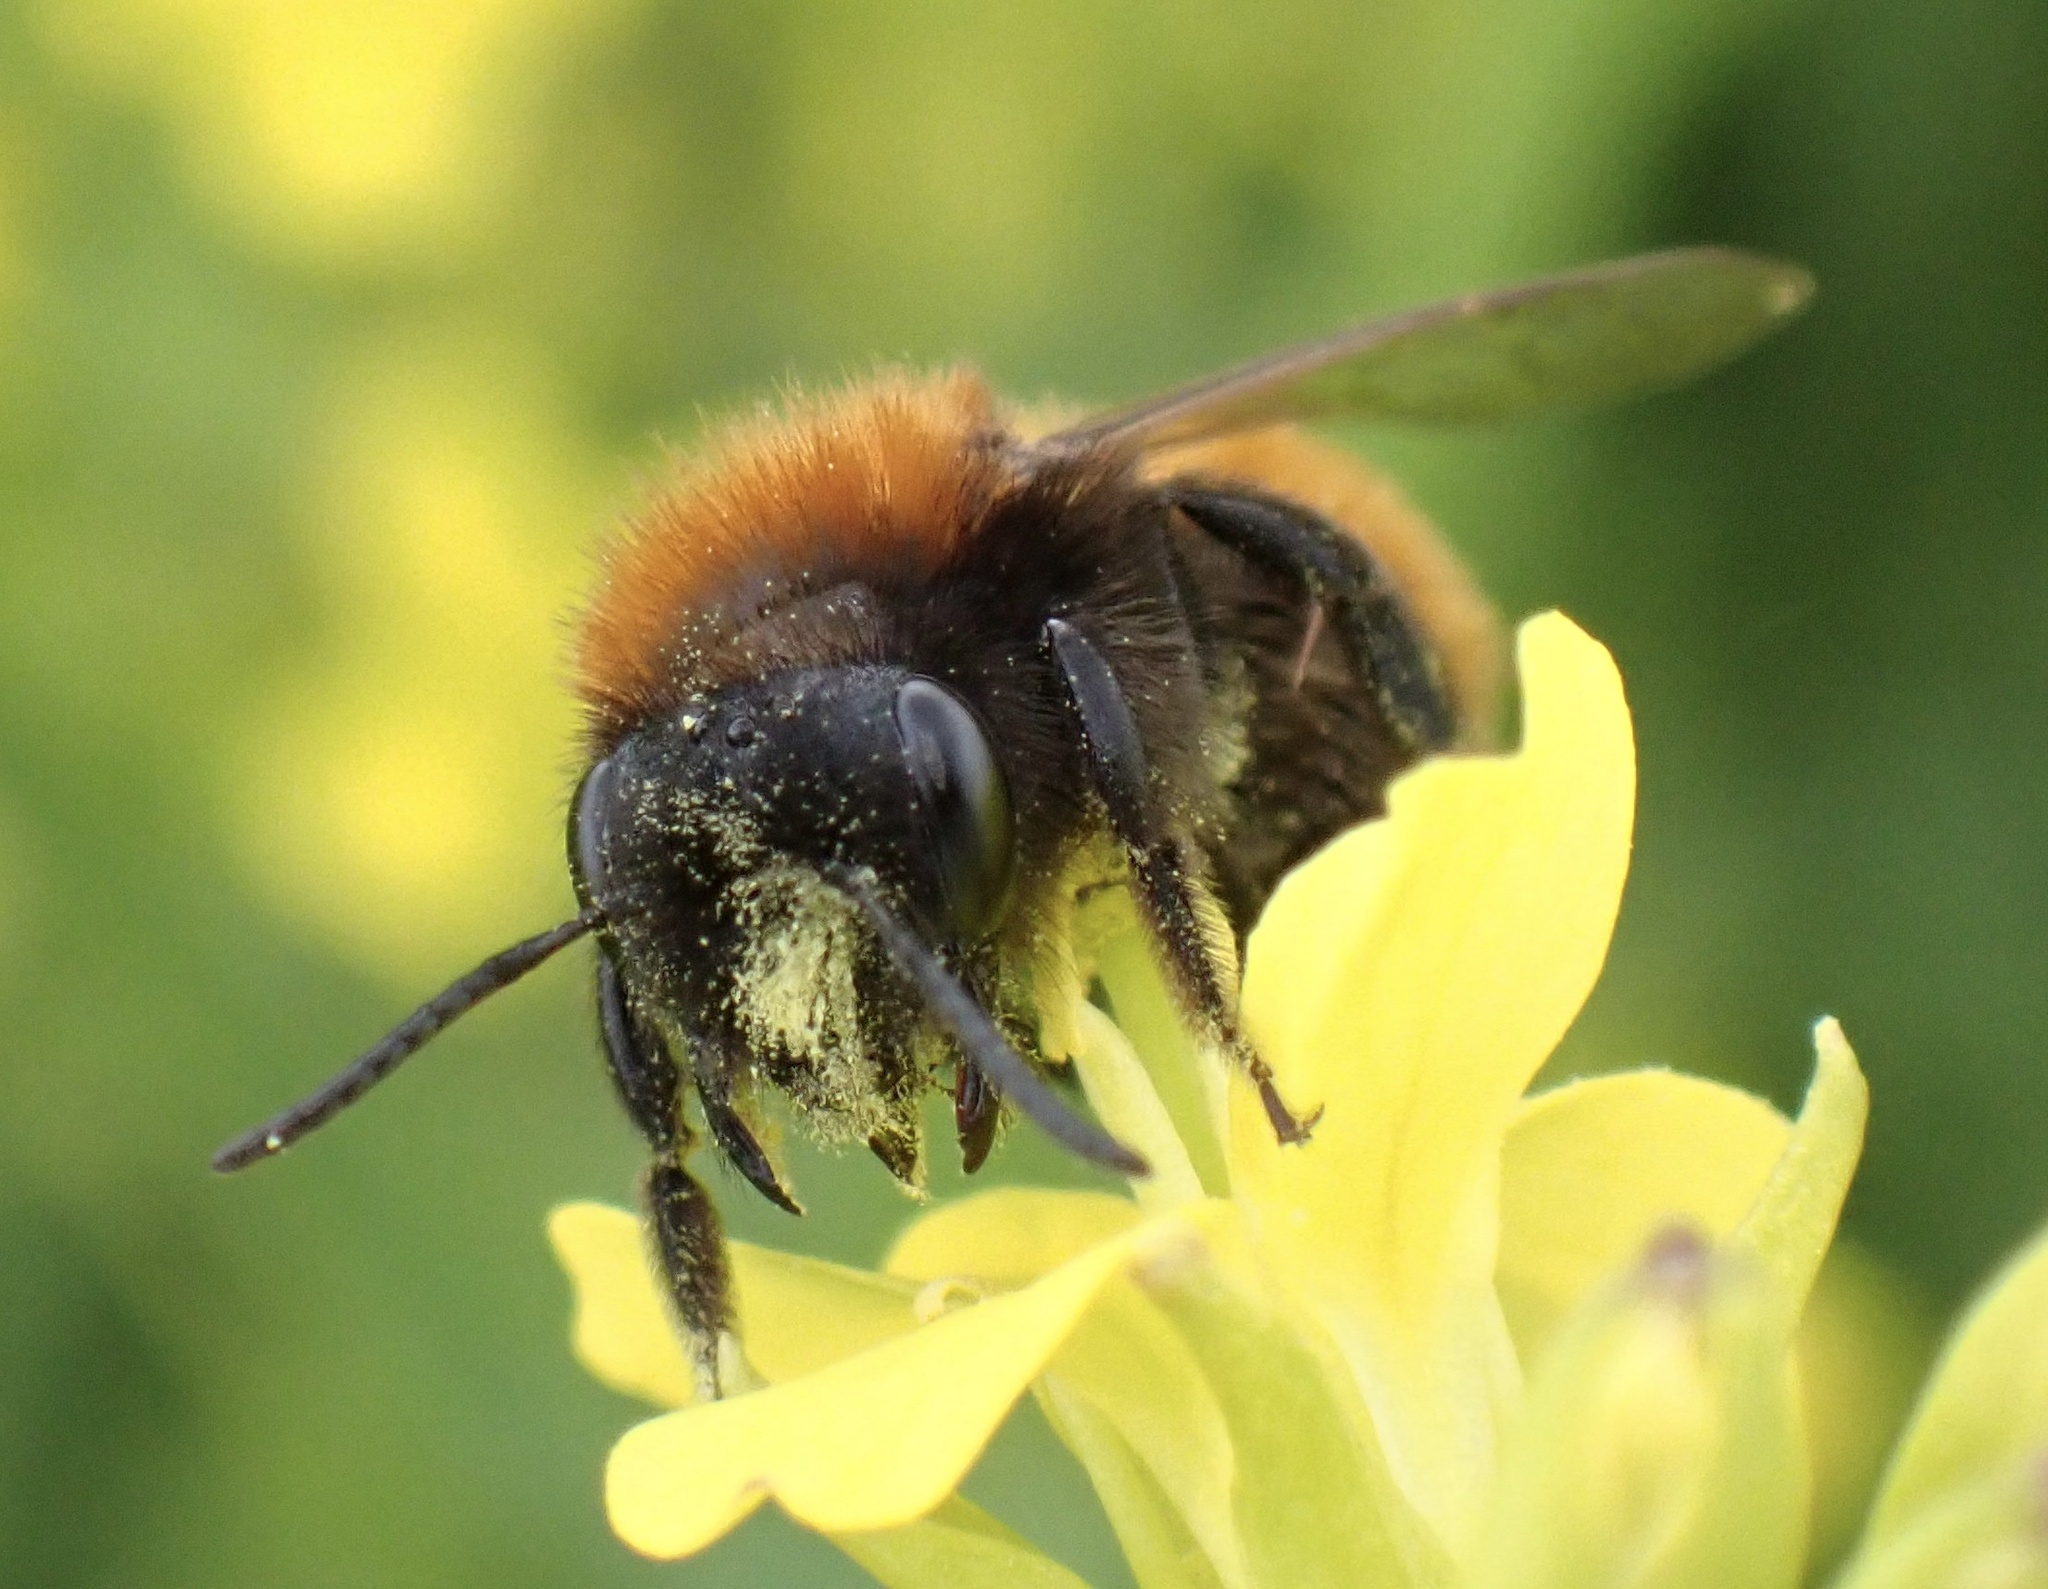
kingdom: Animalia
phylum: Arthropoda
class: Insecta
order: Hymenoptera
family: Andrenidae
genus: Andrena
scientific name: Andrena fulva
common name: Tawny mining bee
